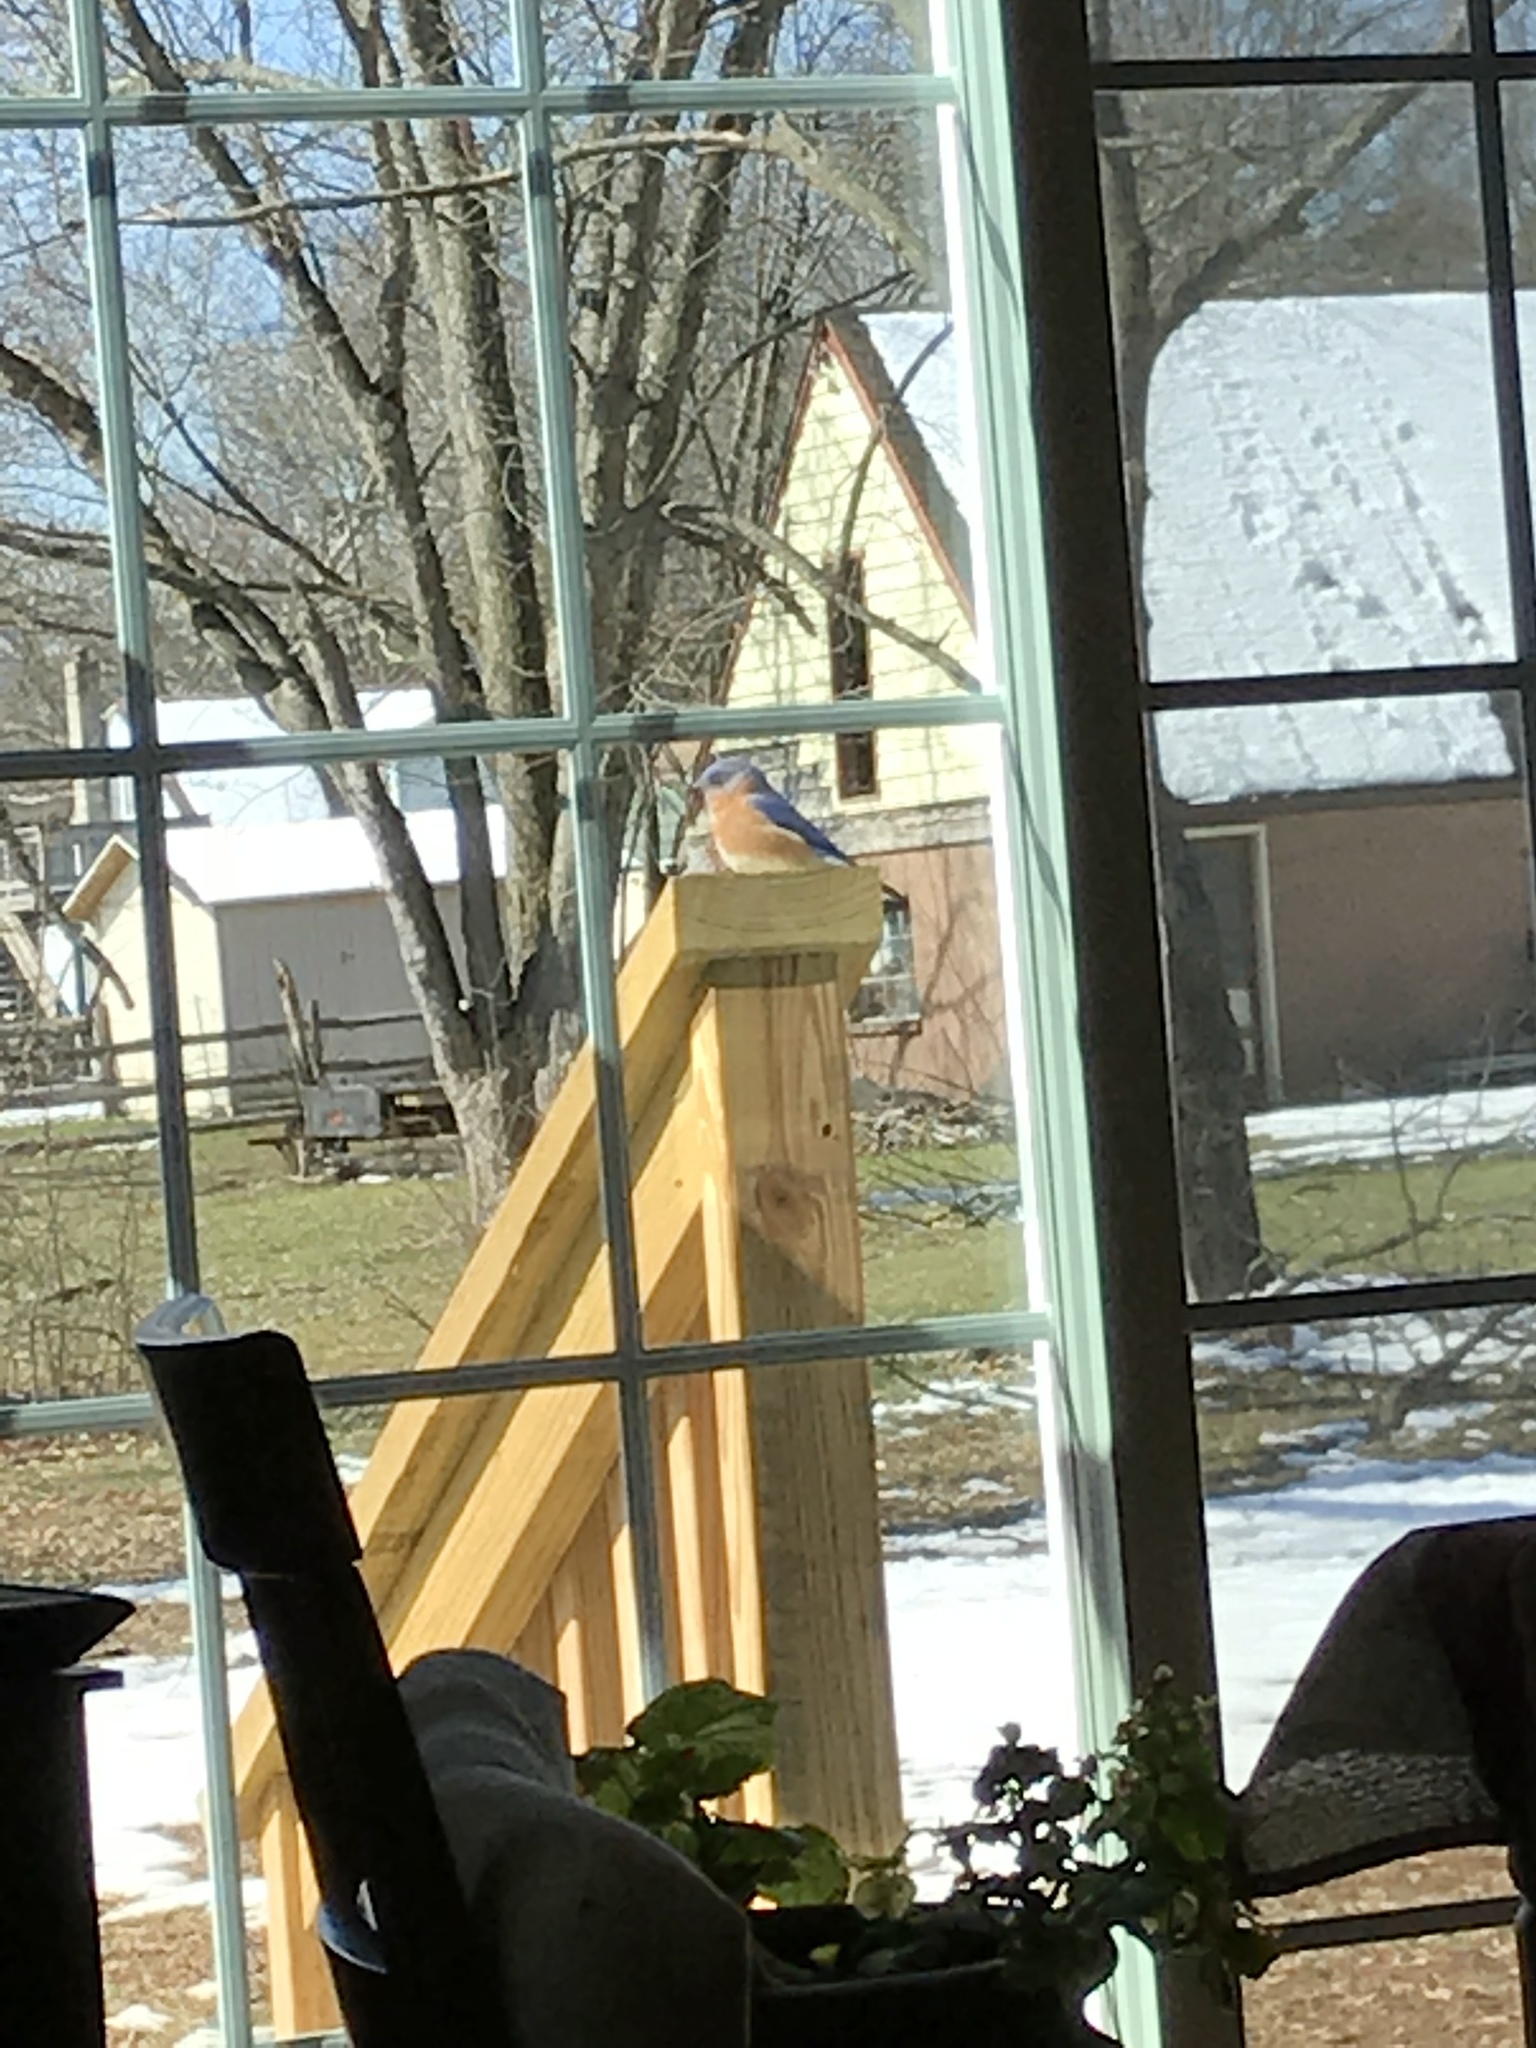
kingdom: Animalia
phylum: Chordata
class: Aves
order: Passeriformes
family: Turdidae
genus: Sialia
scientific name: Sialia sialis
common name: Eastern bluebird
